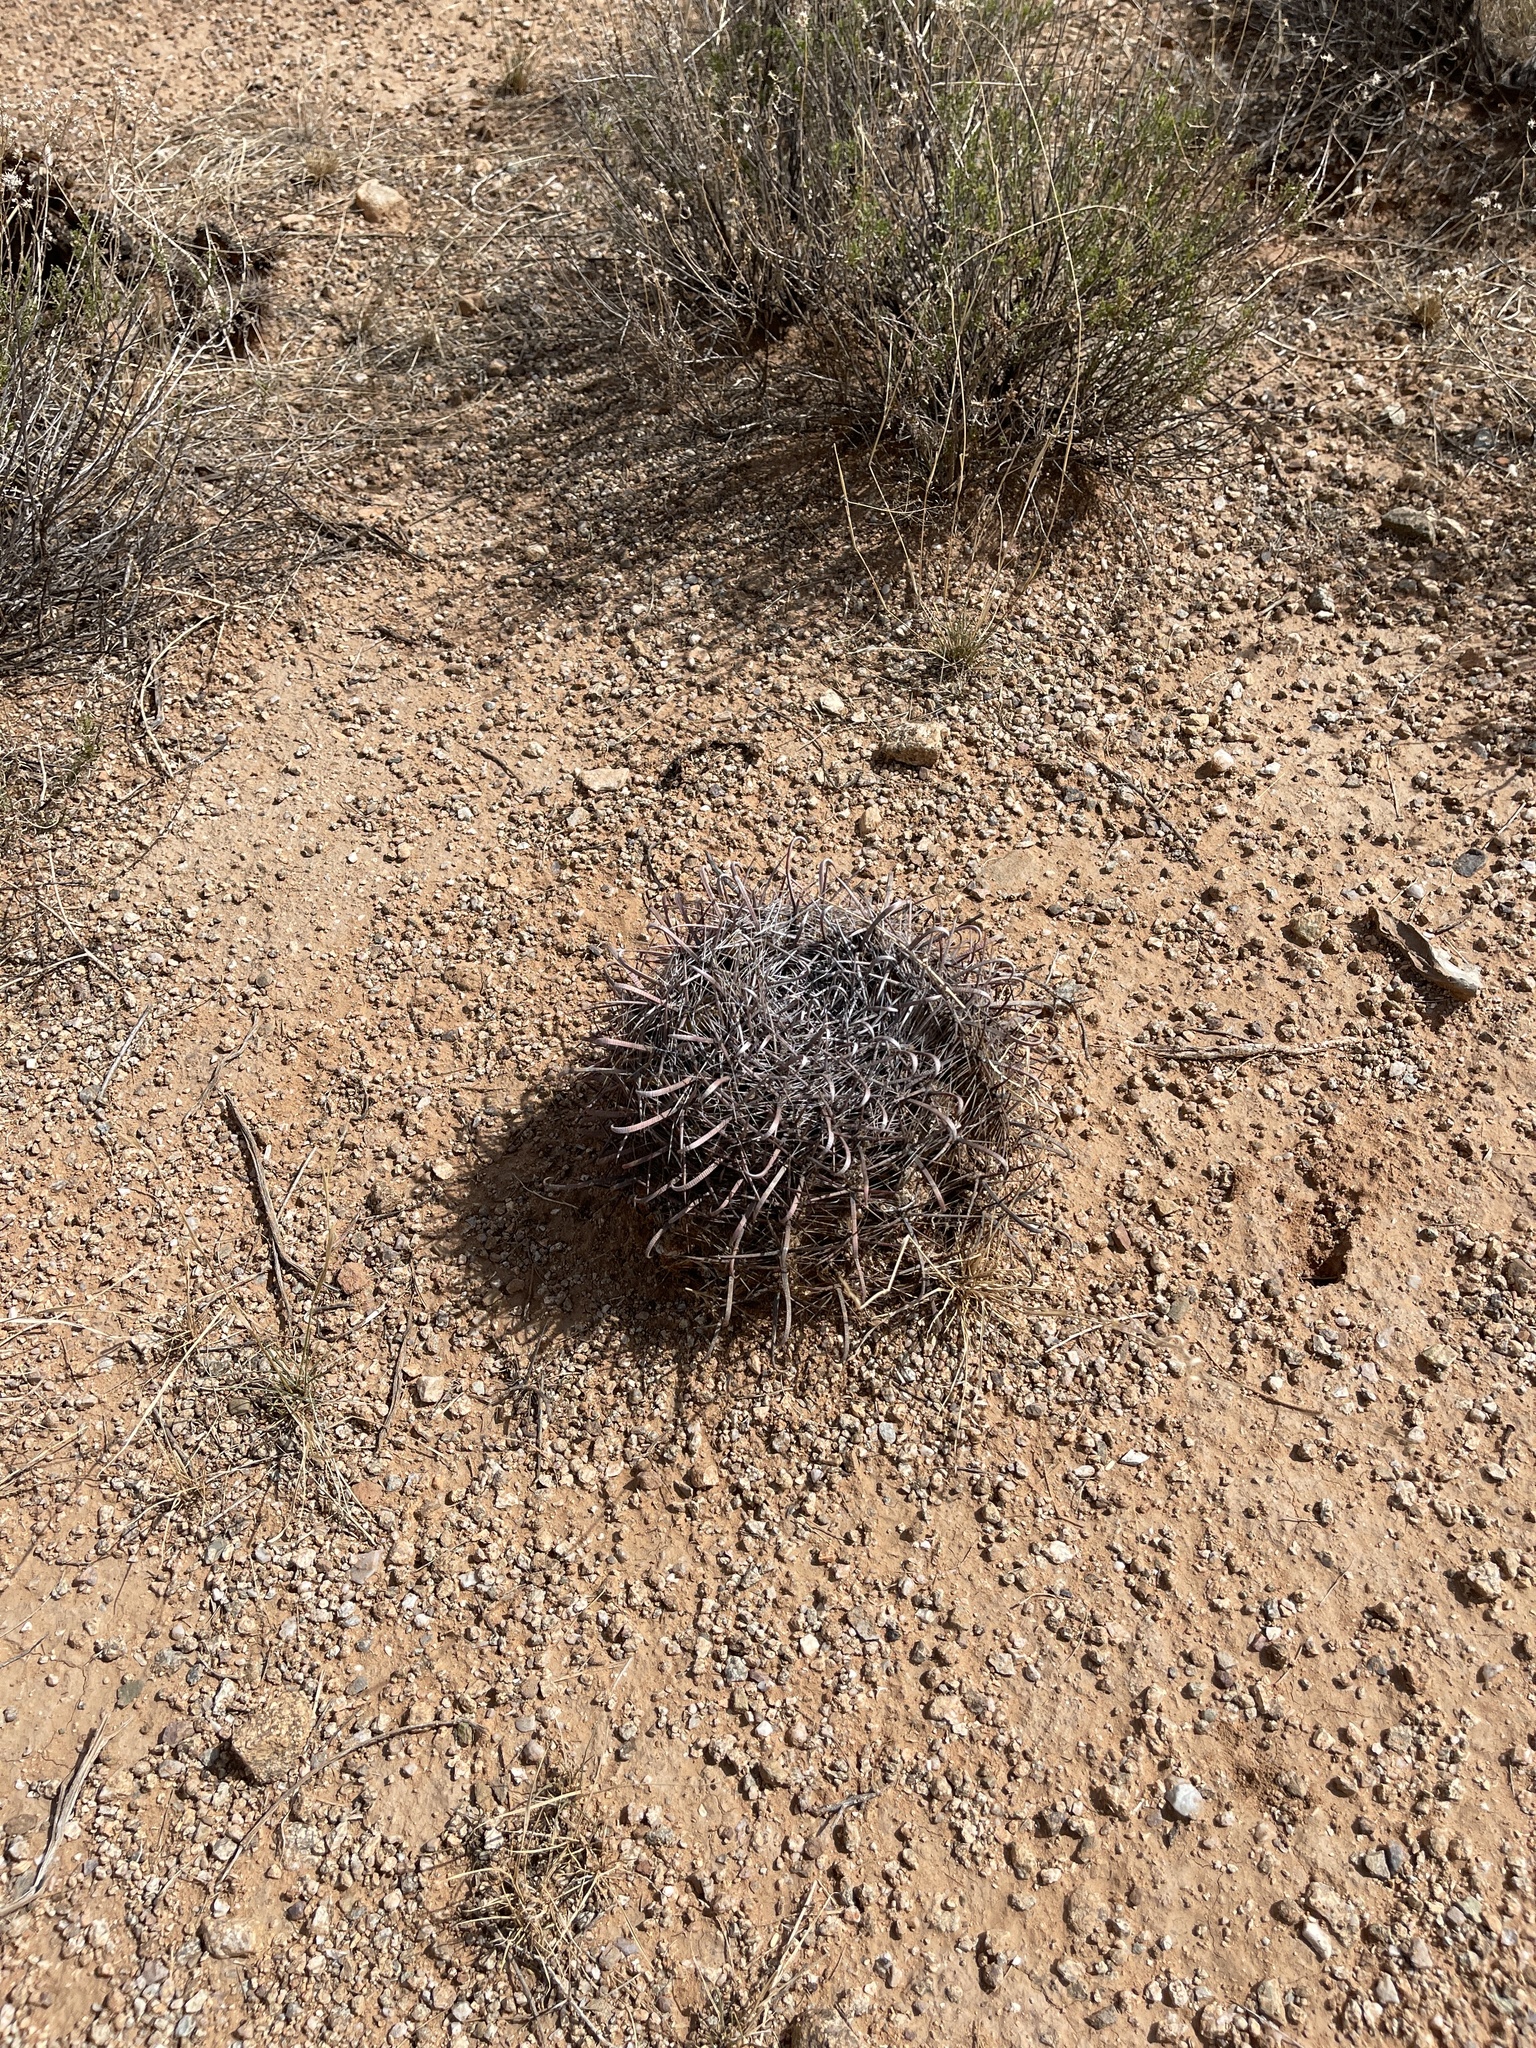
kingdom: Plantae
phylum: Tracheophyta
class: Magnoliopsida
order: Caryophyllales
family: Cactaceae
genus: Ferocactus
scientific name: Ferocactus wislizeni
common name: Candy barrel cactus
